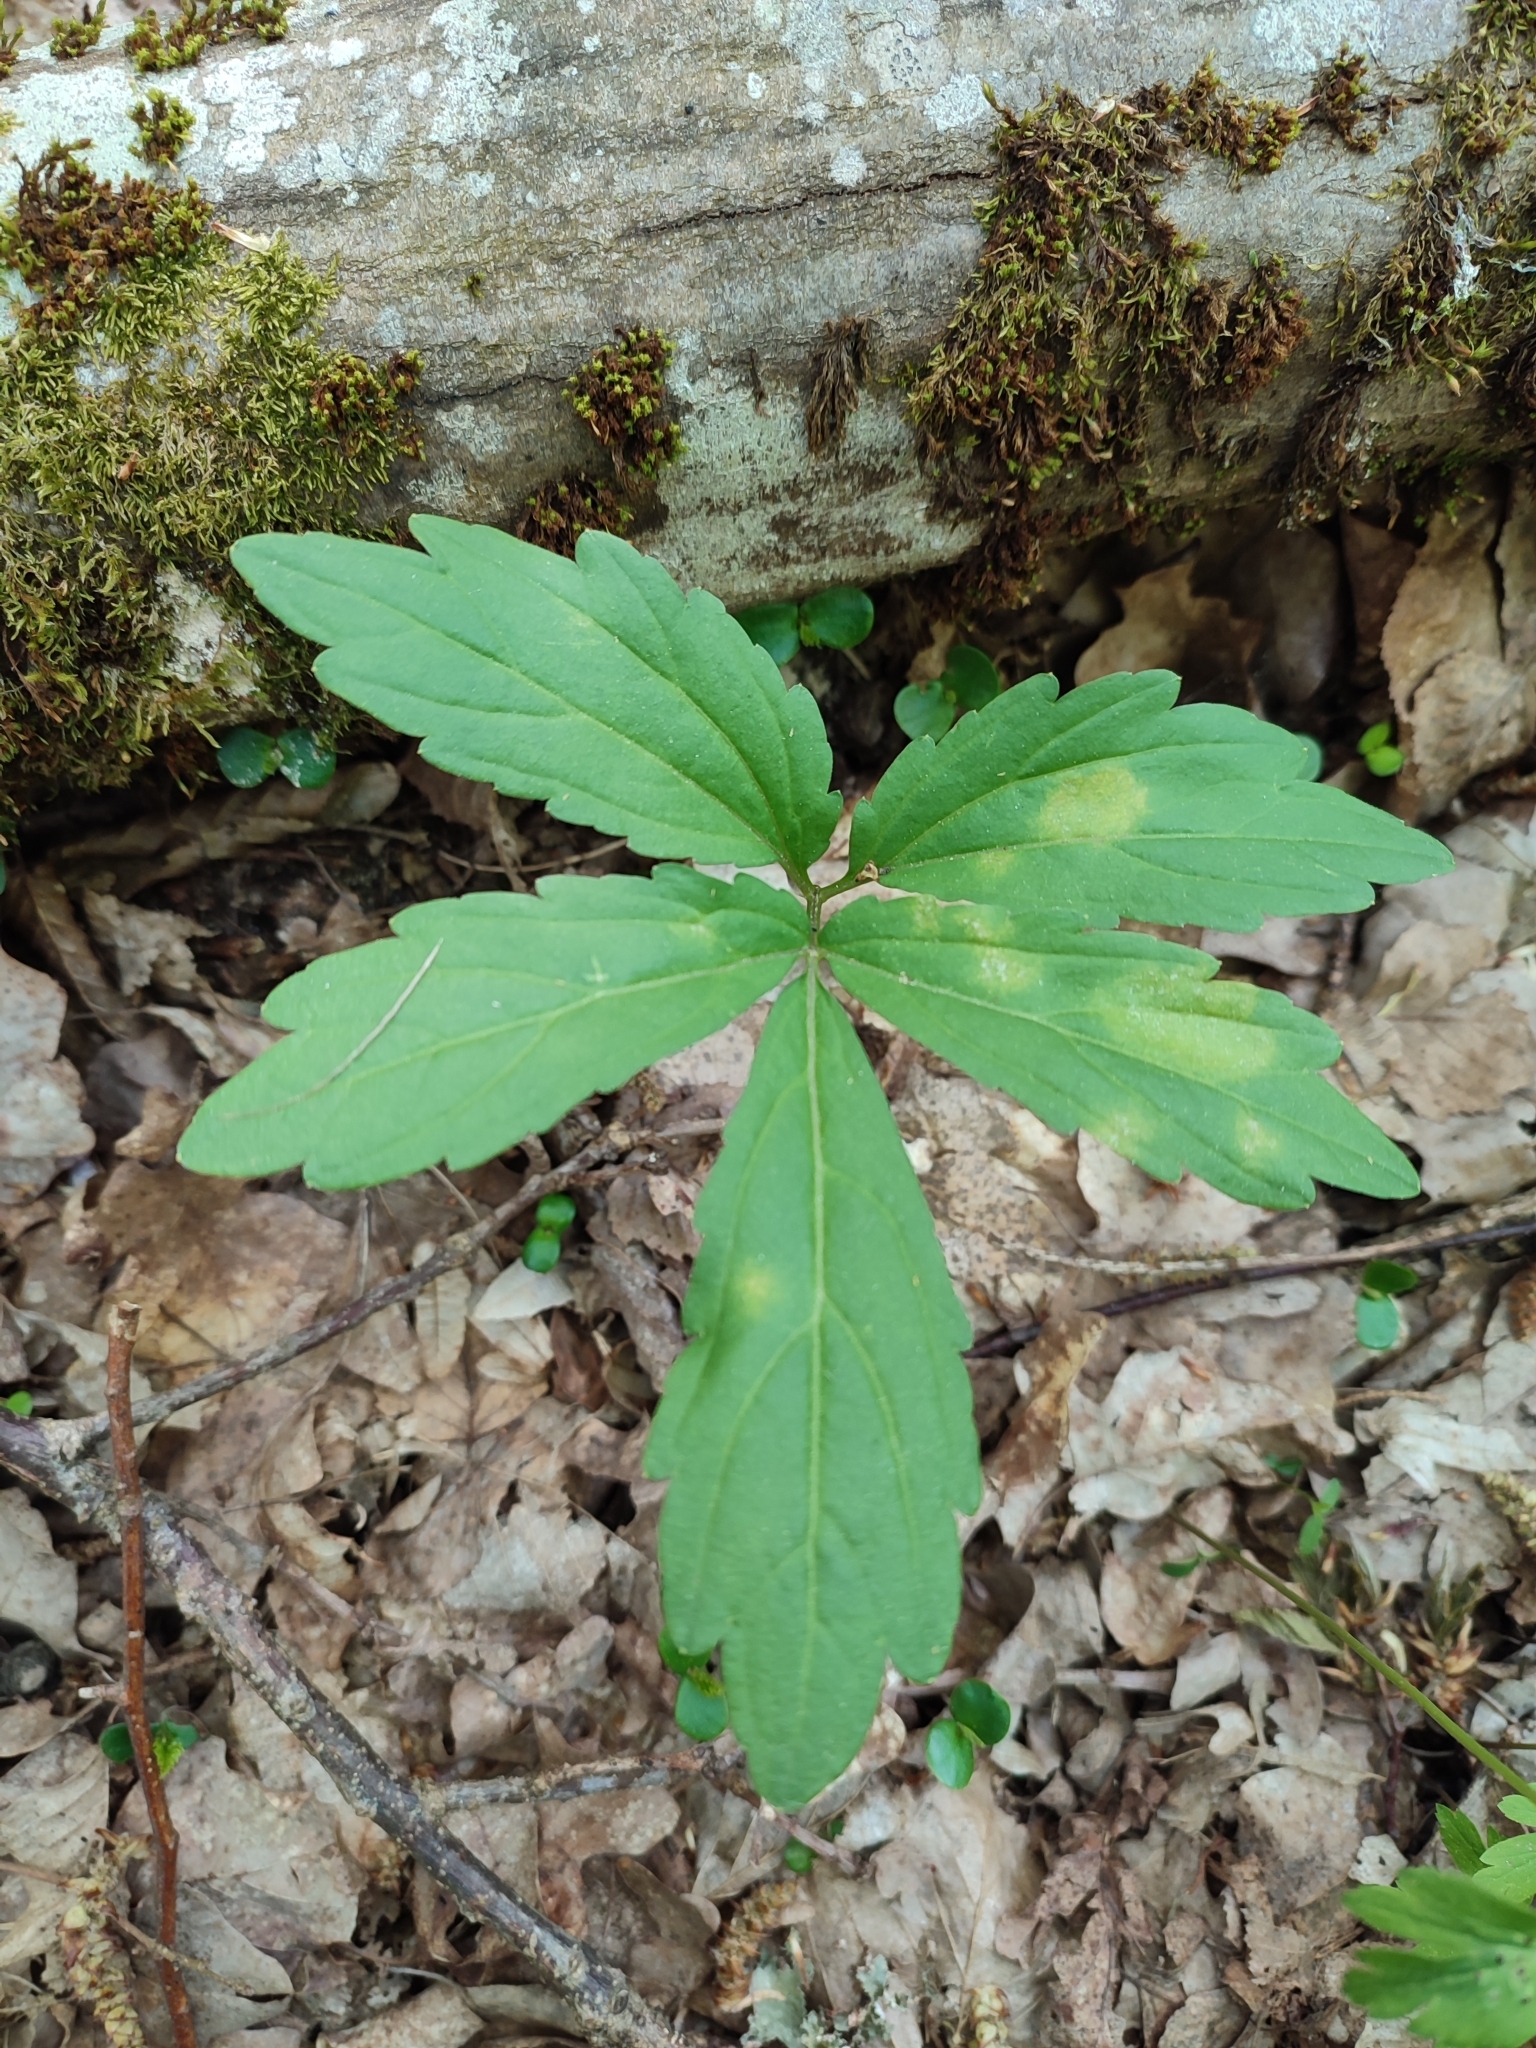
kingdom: Plantae
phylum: Tracheophyta
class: Magnoliopsida
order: Brassicales
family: Brassicaceae
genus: Cardamine
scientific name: Cardamine bulbifera
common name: Coralroot bittercress
